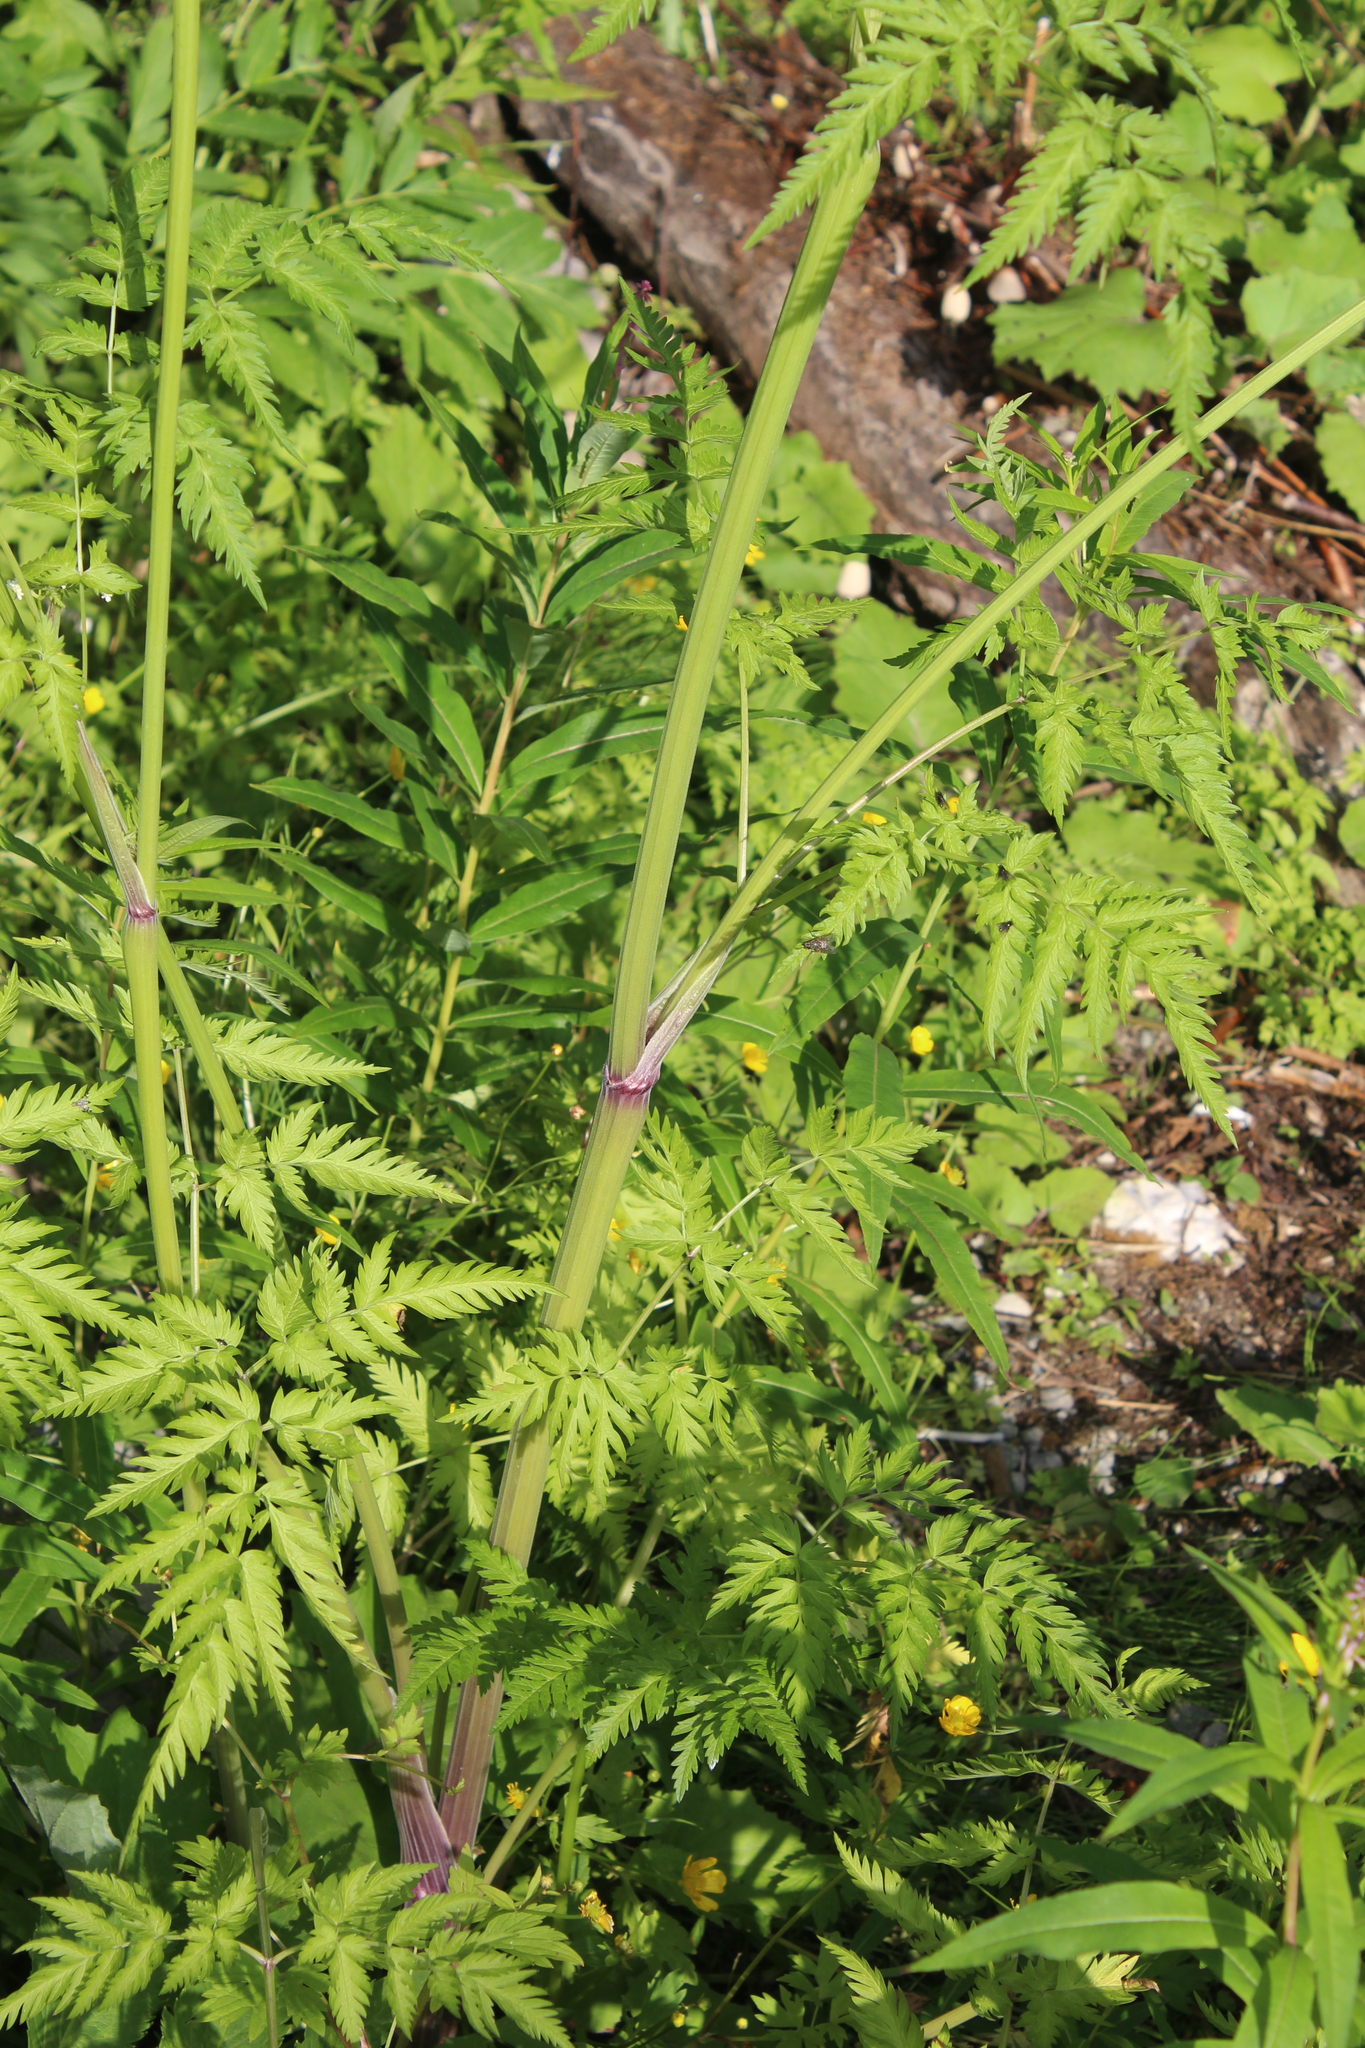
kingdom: Plantae
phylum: Tracheophyta
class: Magnoliopsida
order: Apiales
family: Apiaceae
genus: Anthriscus
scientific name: Anthriscus sylvestris
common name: Cow parsley
